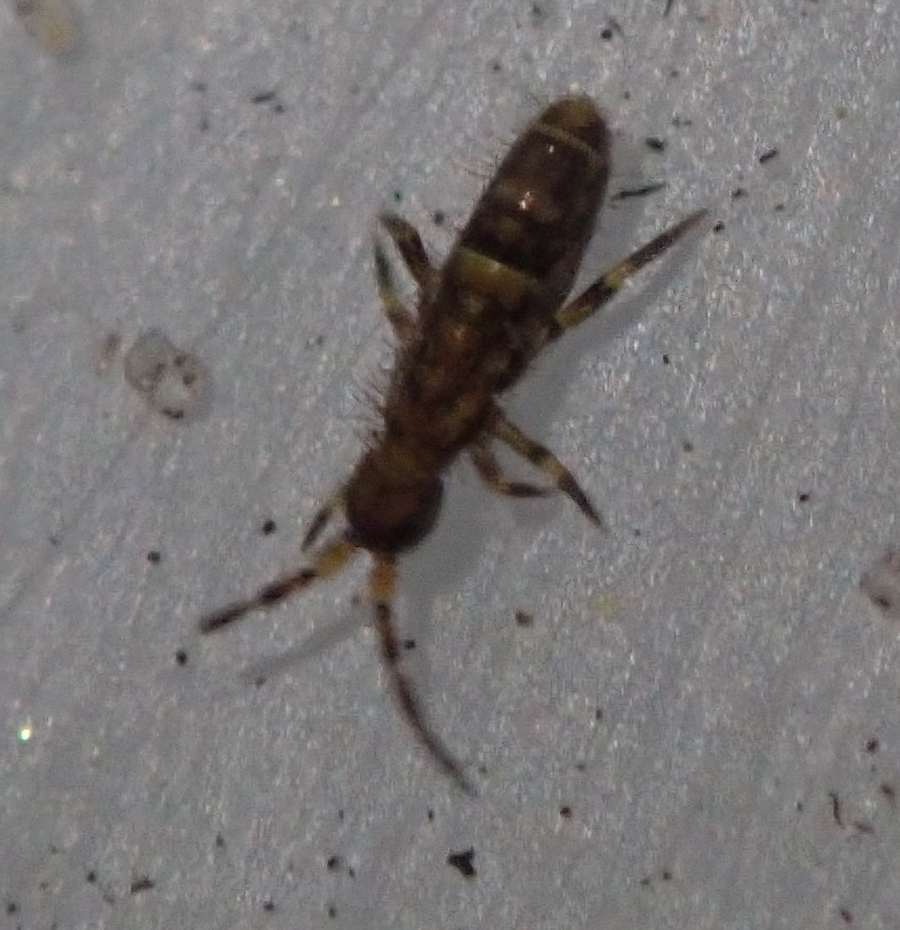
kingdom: Animalia
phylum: Arthropoda
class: Collembola
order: Entomobryomorpha
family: Orchesellidae
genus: Orchesella
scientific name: Orchesella cincta
